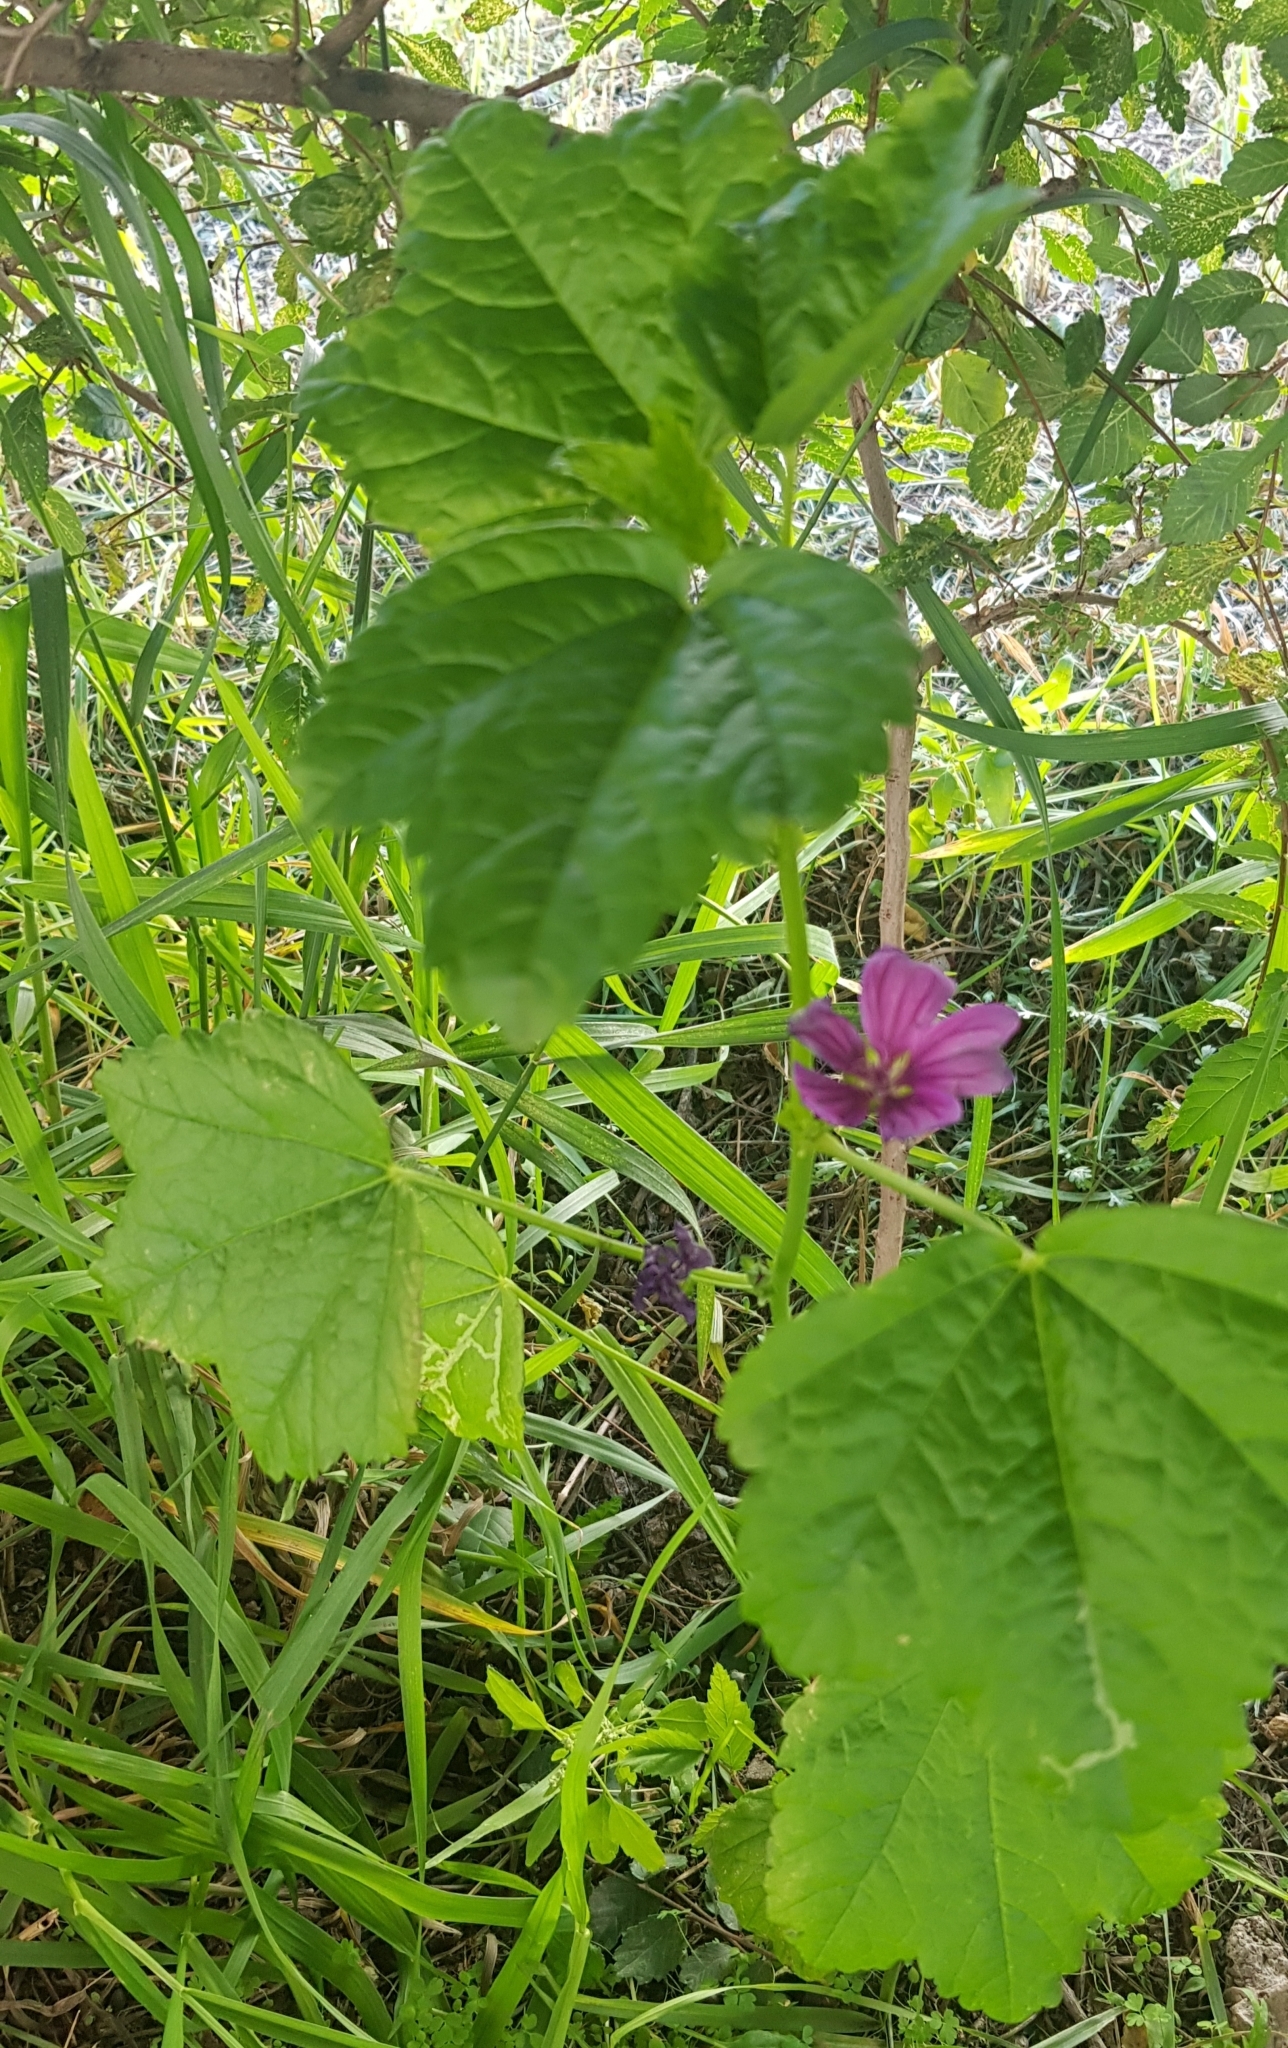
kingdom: Plantae
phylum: Tracheophyta
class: Magnoliopsida
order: Malvales
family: Malvaceae
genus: Malva
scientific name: Malva sylvestris
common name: Common mallow
